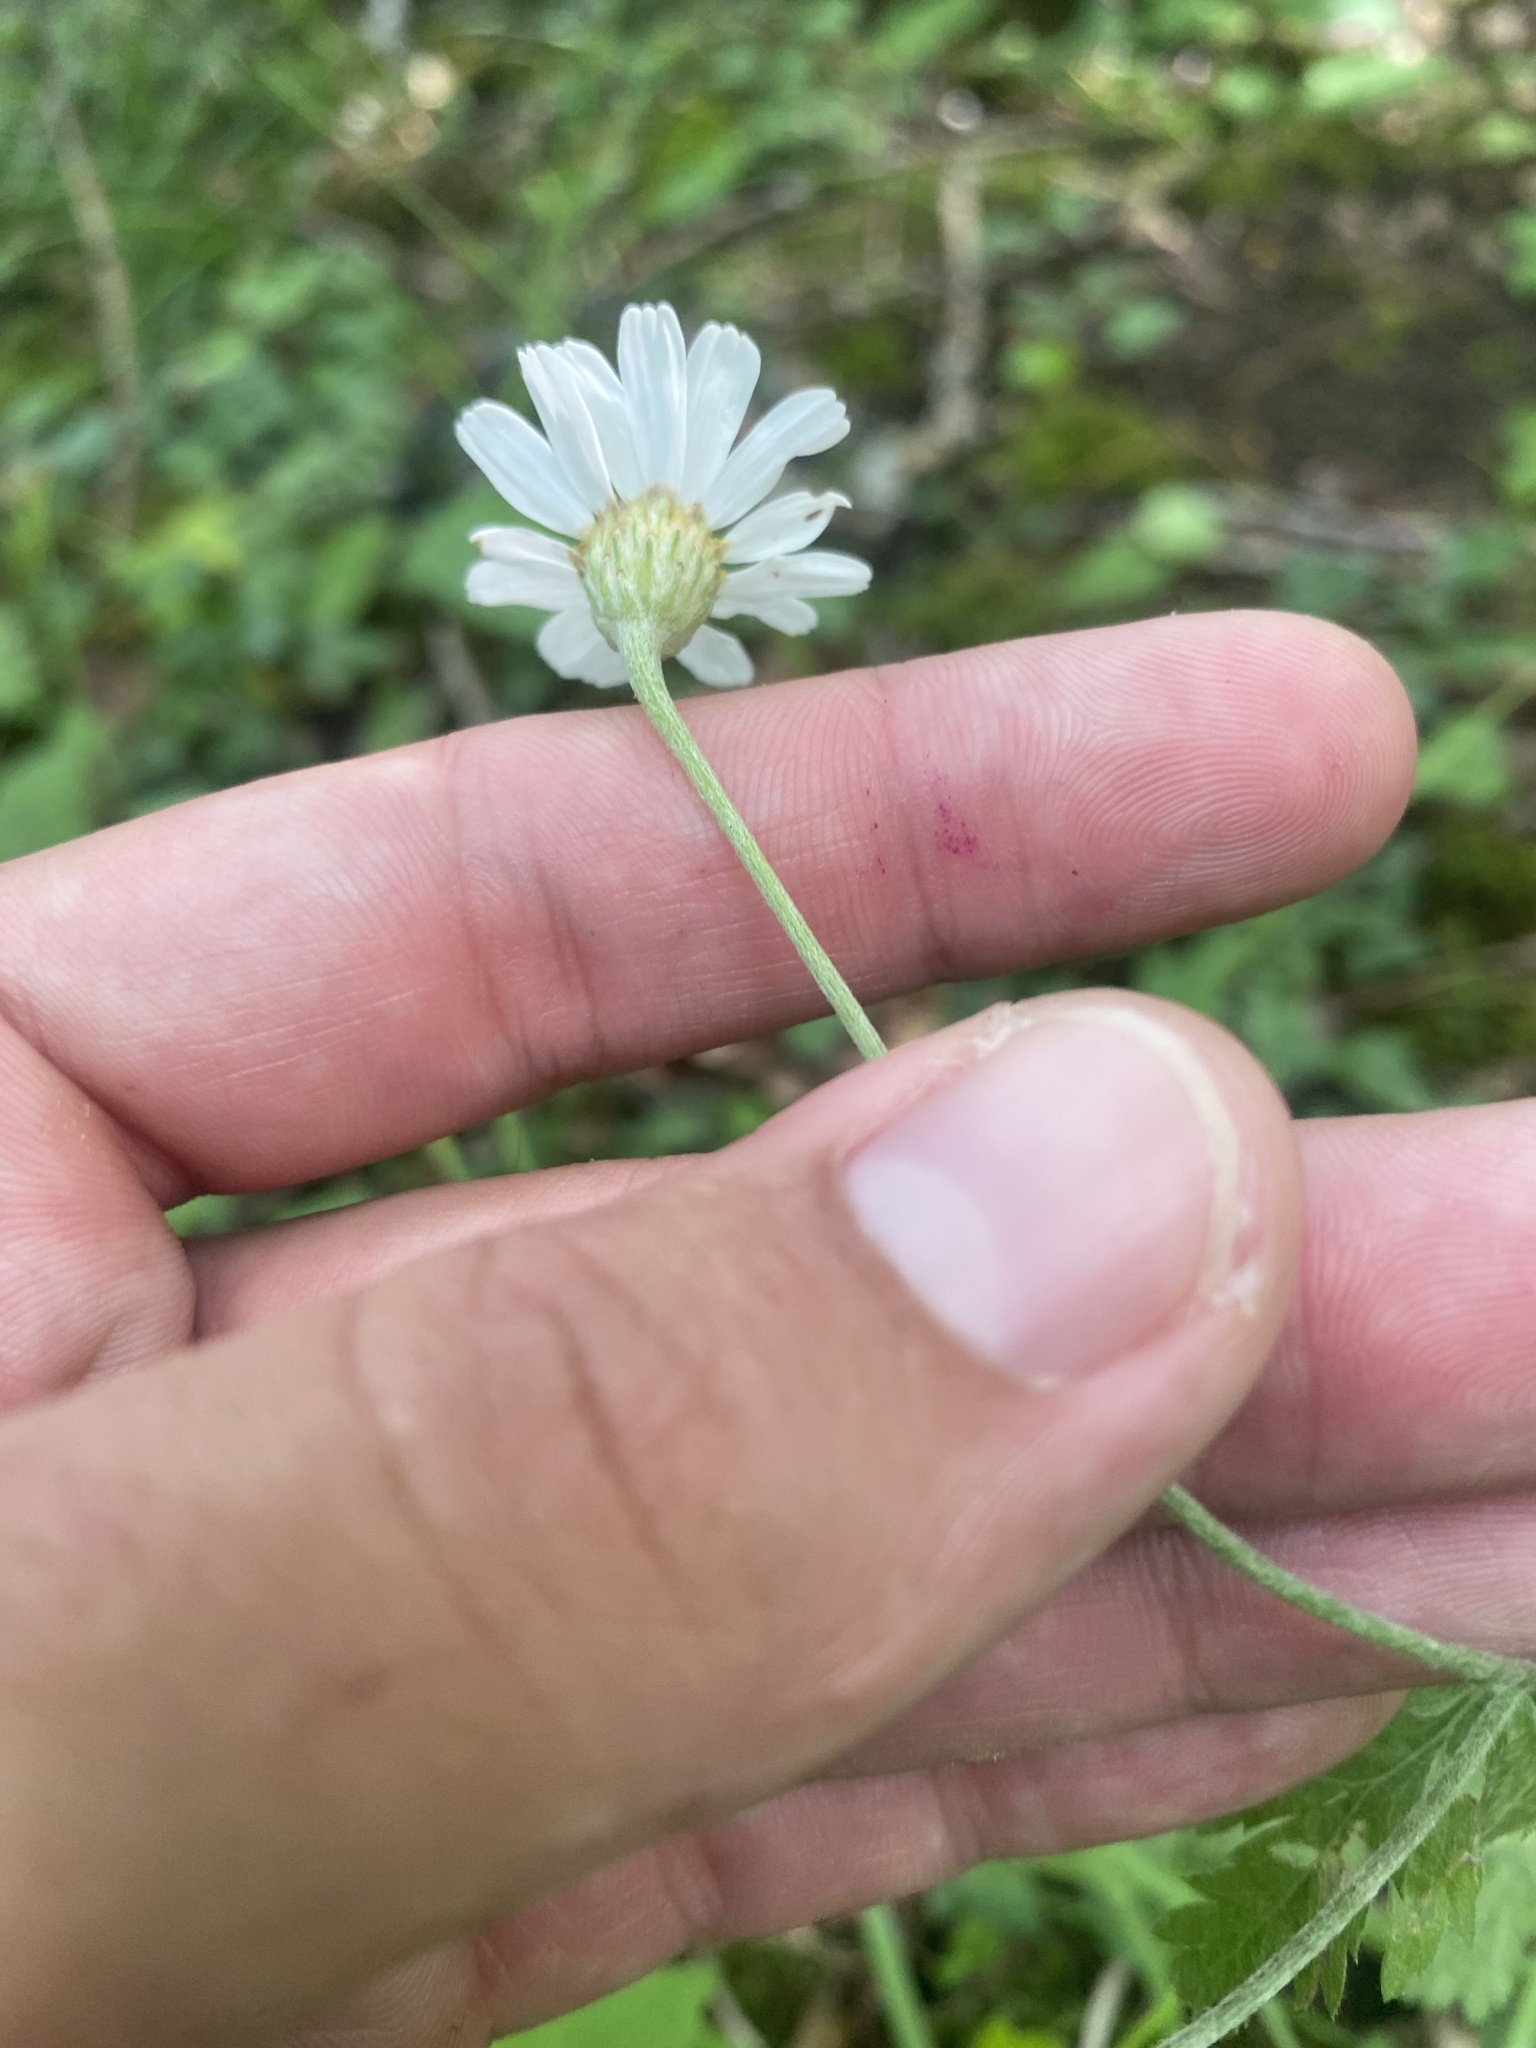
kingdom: Plantae
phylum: Tracheophyta
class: Magnoliopsida
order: Asterales
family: Asteraceae
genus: Tanacetum
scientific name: Tanacetum poteriifolium
